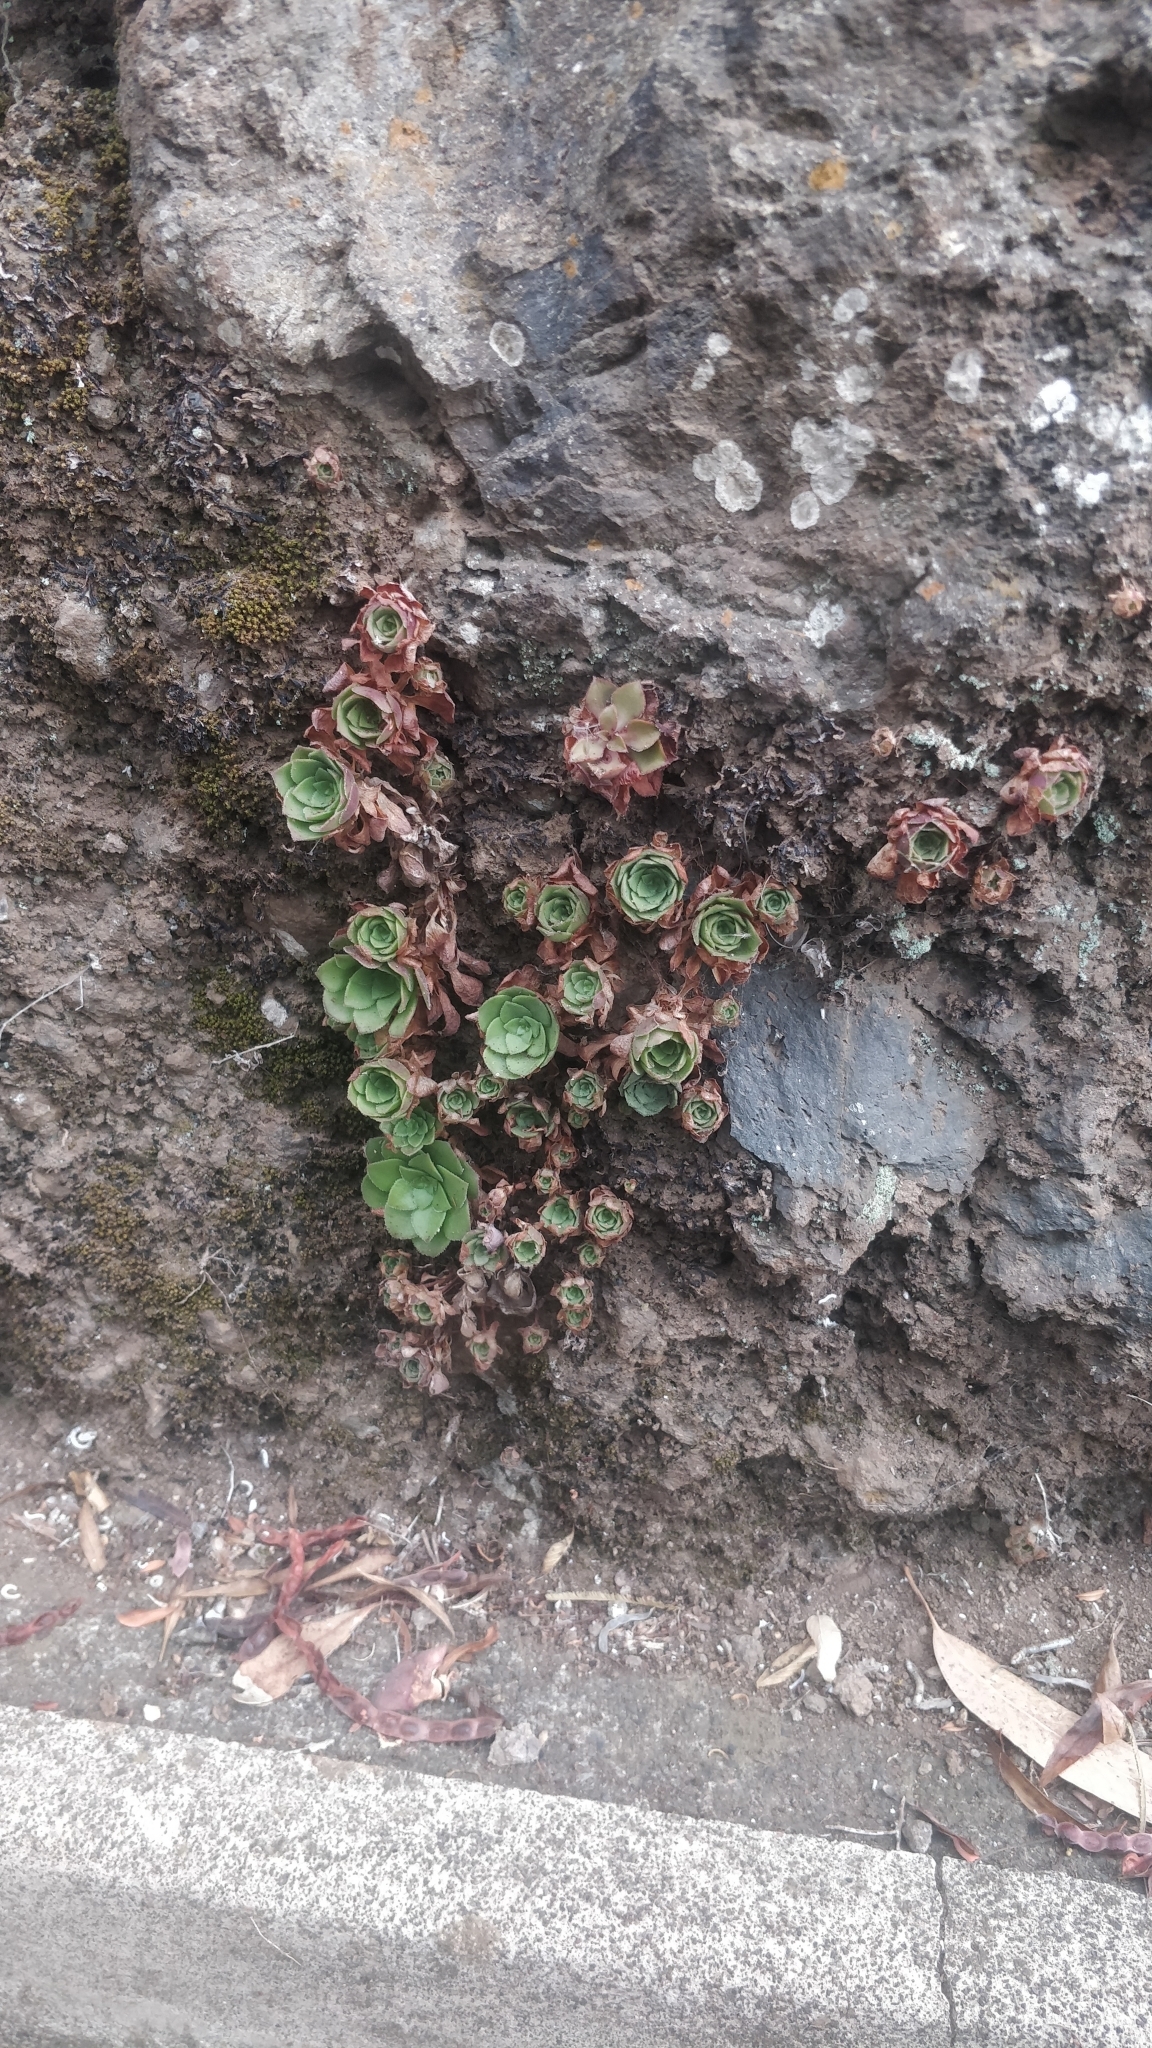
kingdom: Plantae
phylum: Tracheophyta
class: Magnoliopsida
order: Saxifragales
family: Crassulaceae
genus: Aeonium
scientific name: Aeonium glandulosum
